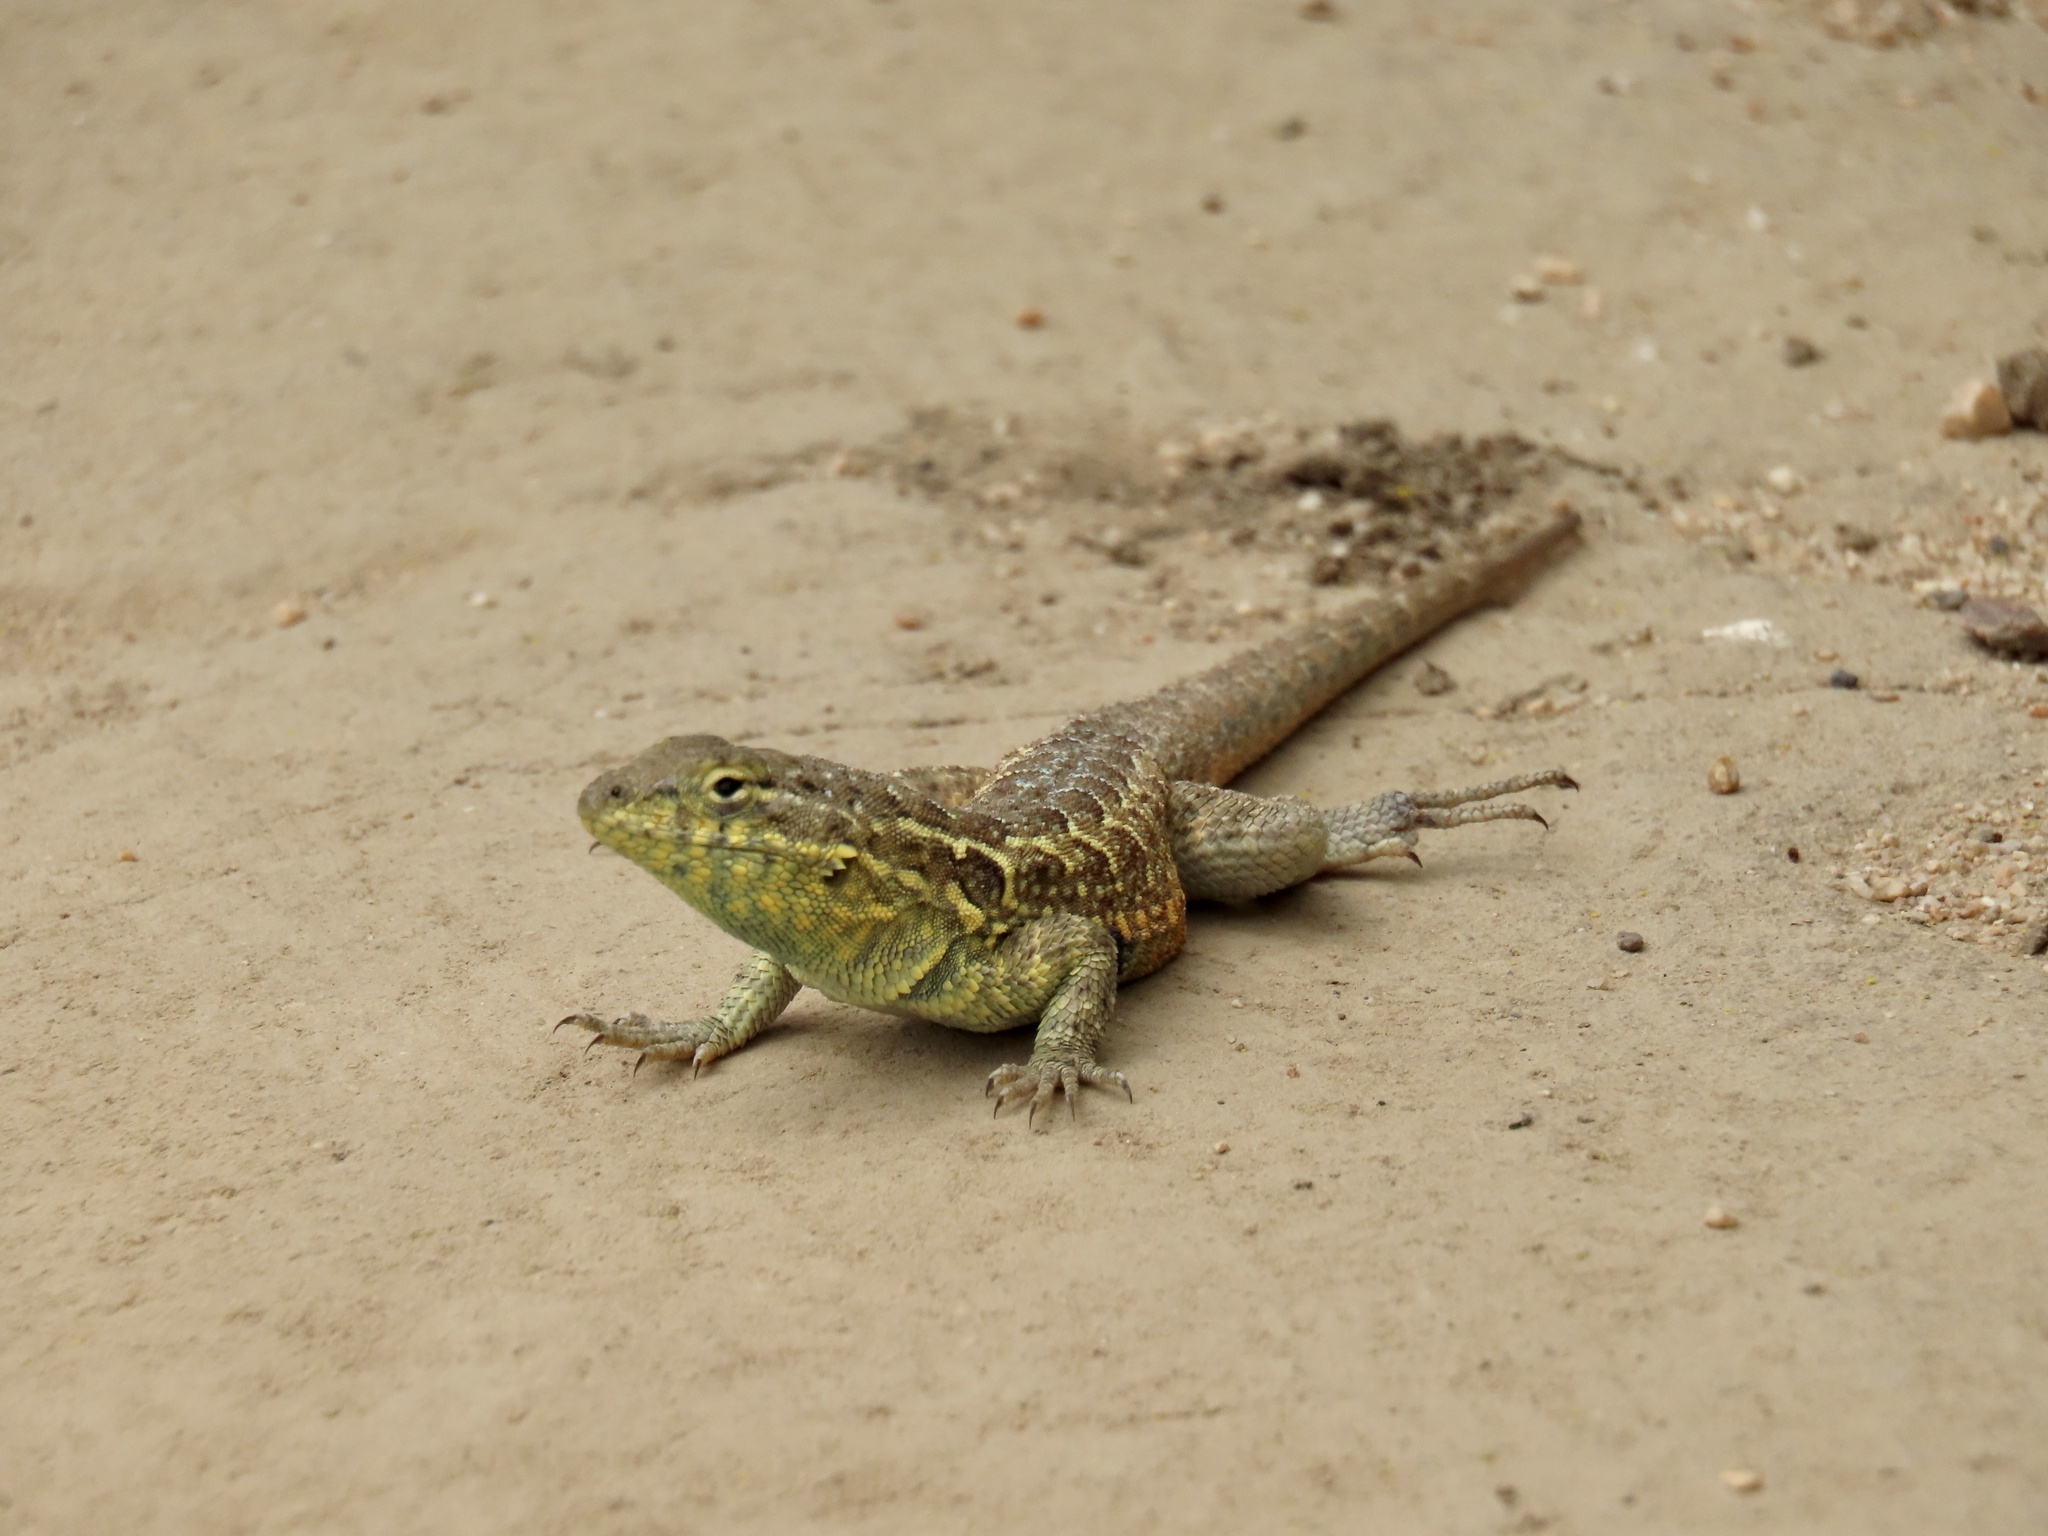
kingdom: Animalia
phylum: Chordata
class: Squamata
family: Phrynosomatidae
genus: Uta
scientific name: Uta stansburiana
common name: Side-blotched lizard
